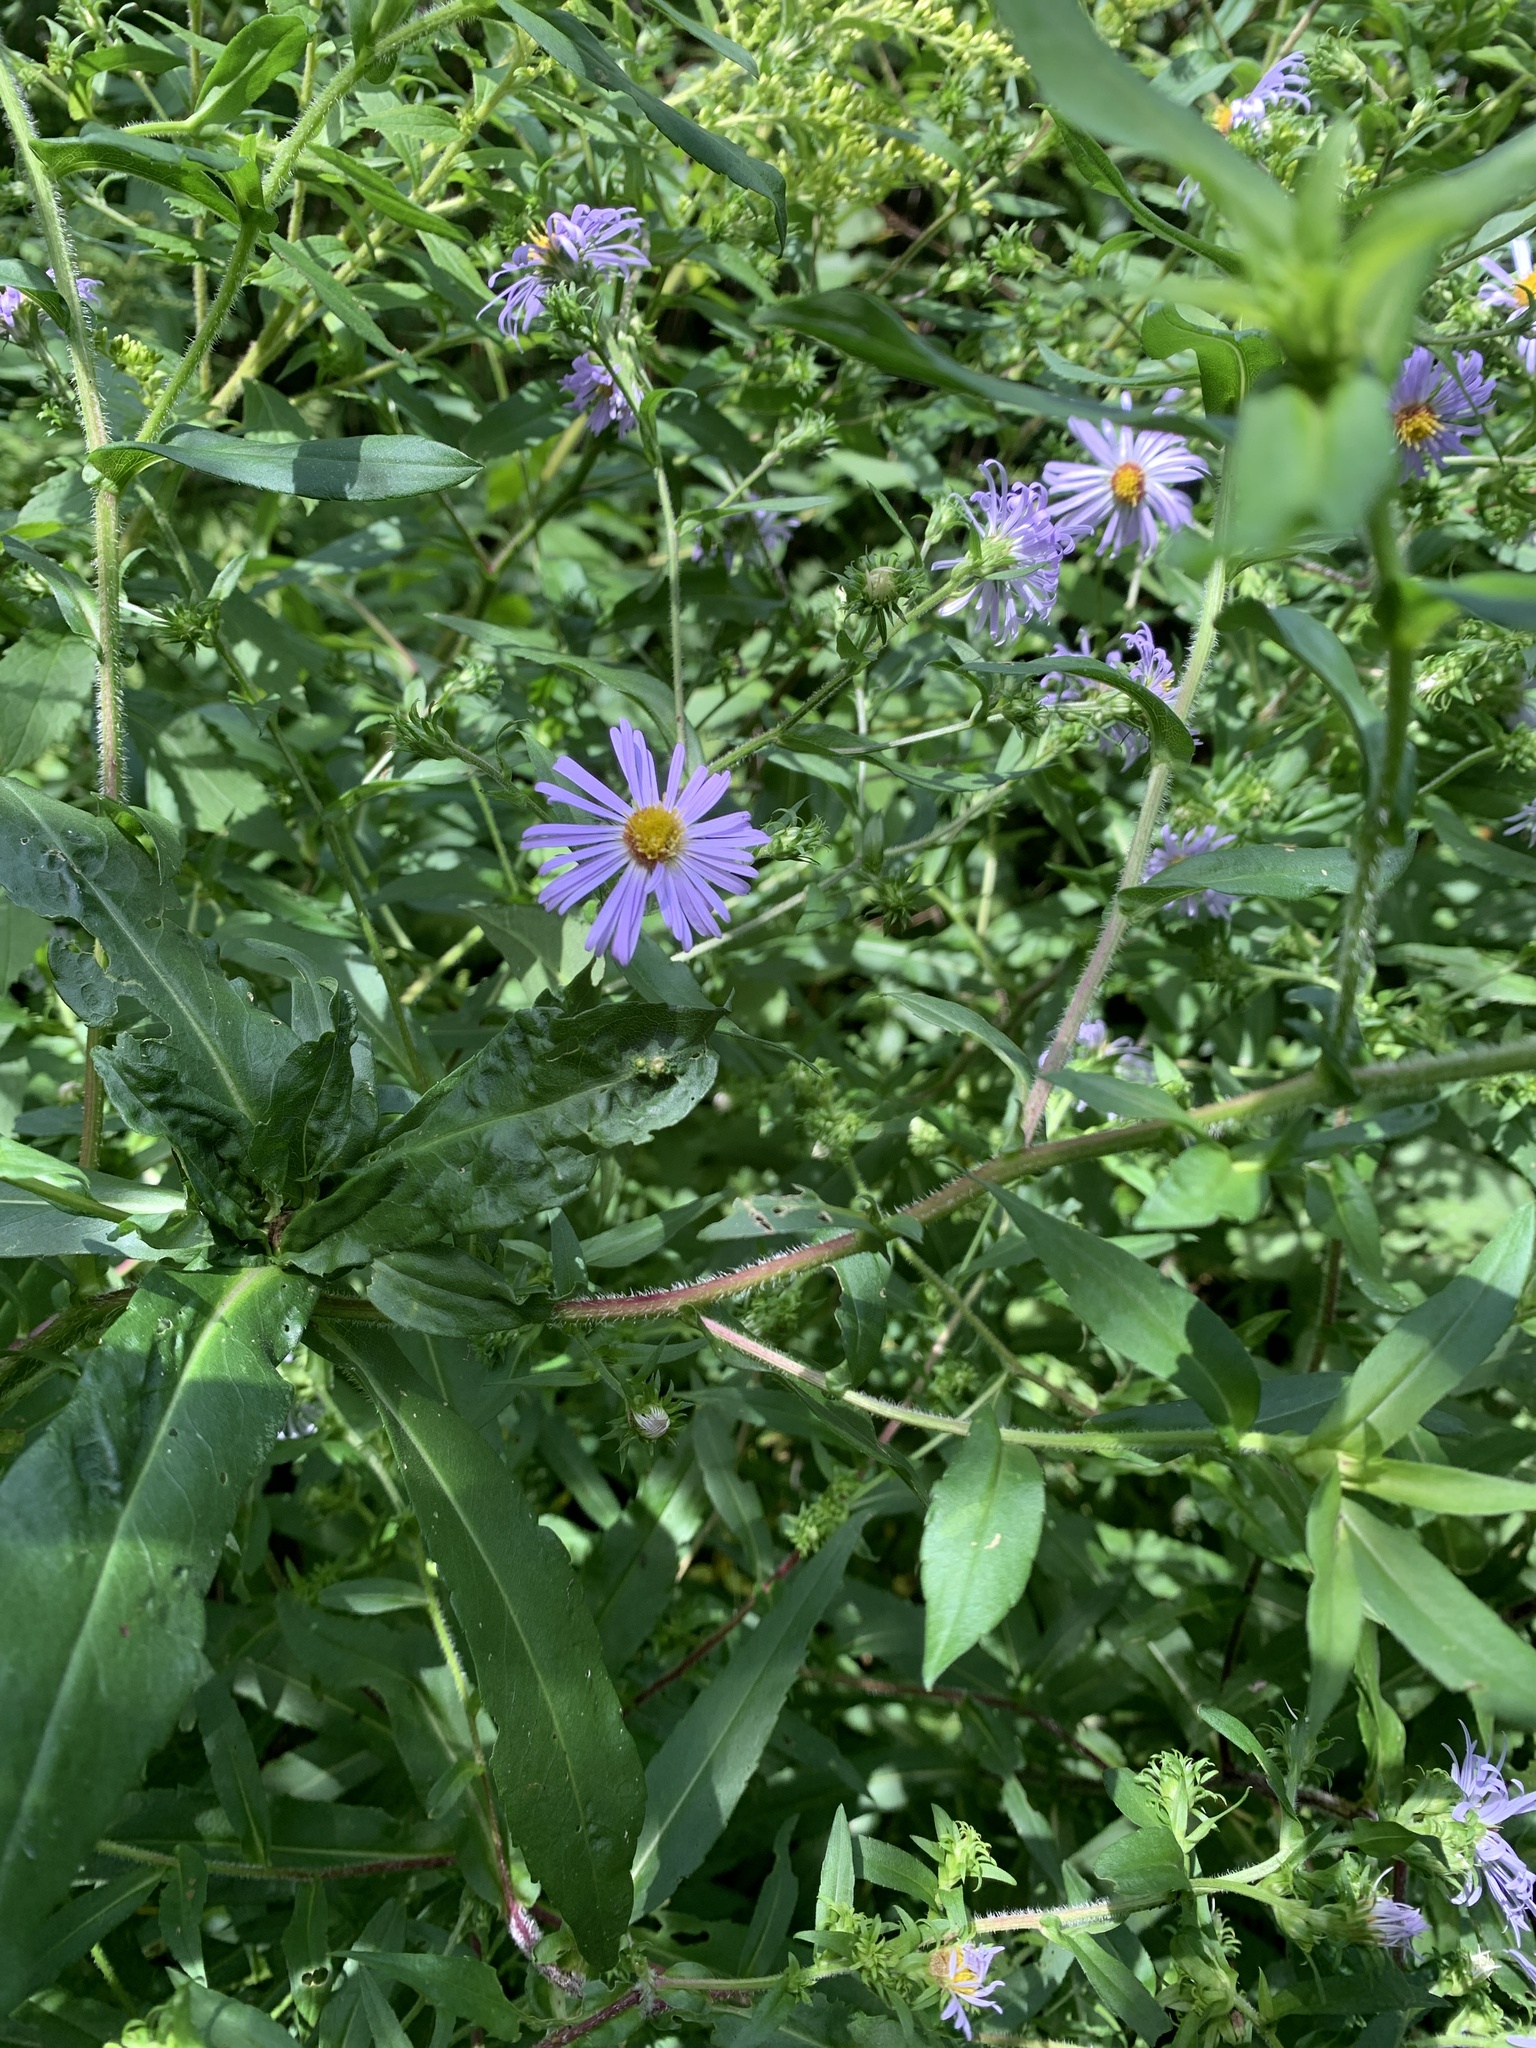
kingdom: Plantae
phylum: Tracheophyta
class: Magnoliopsida
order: Asterales
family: Asteraceae
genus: Symphyotrichum
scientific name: Symphyotrichum puniceum
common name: Bog aster
